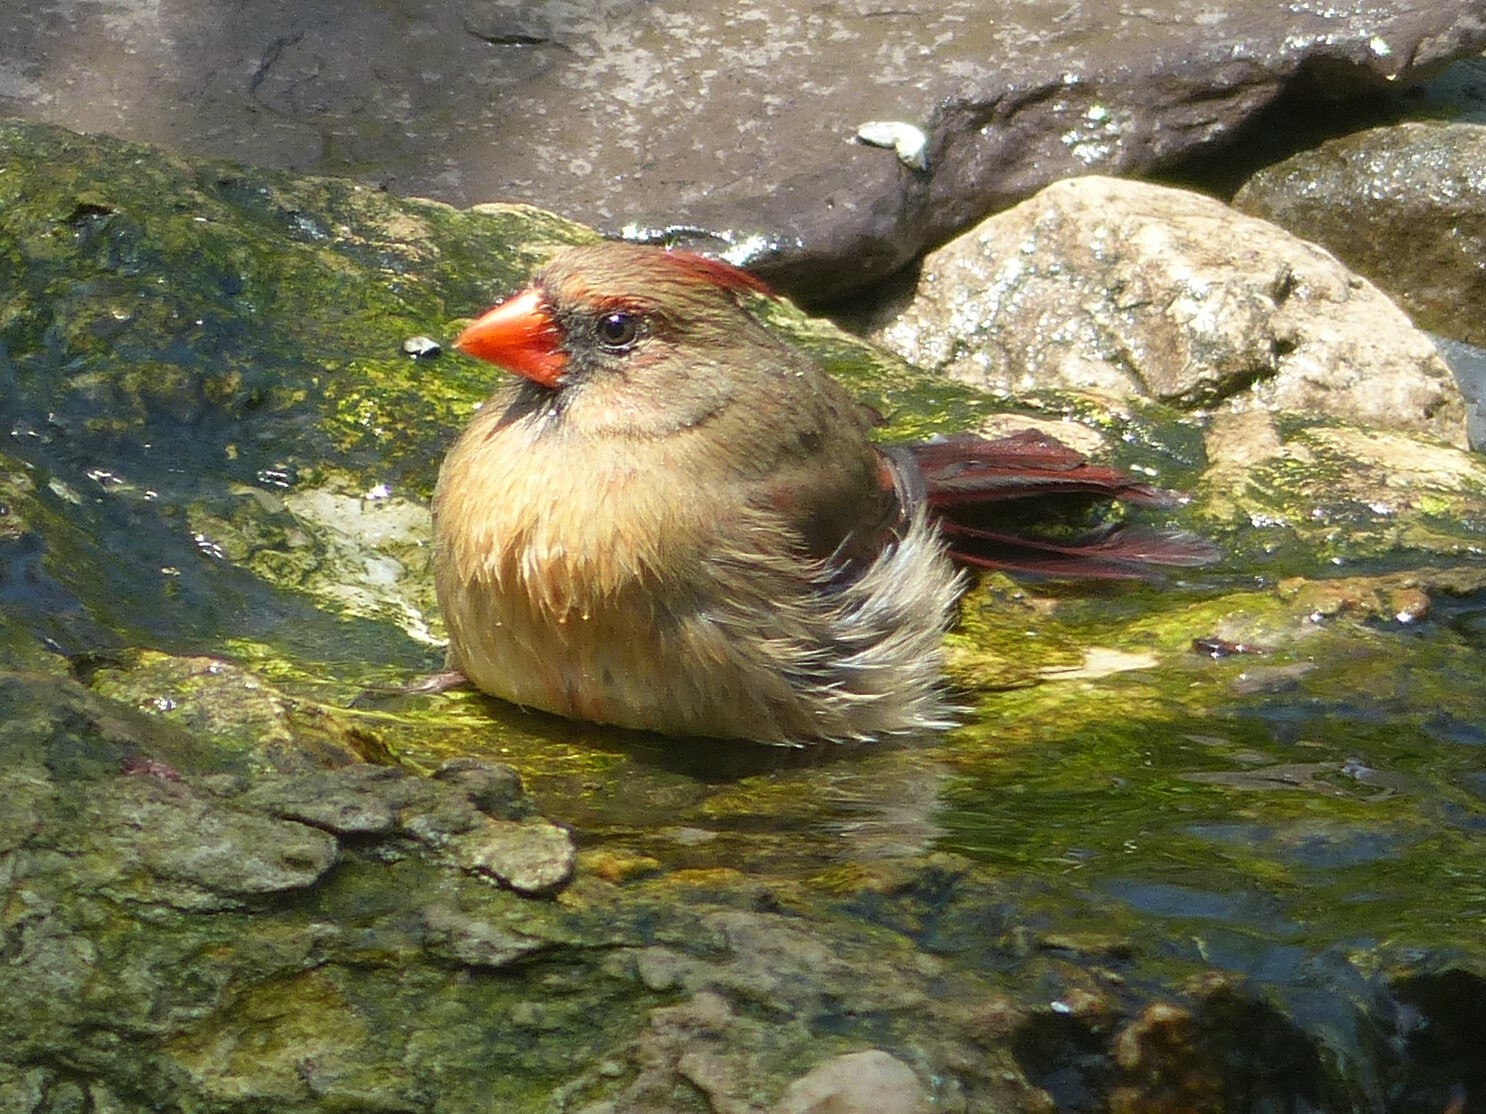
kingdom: Animalia
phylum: Chordata
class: Aves
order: Passeriformes
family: Cardinalidae
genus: Cardinalis
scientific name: Cardinalis cardinalis
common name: Northern cardinal
